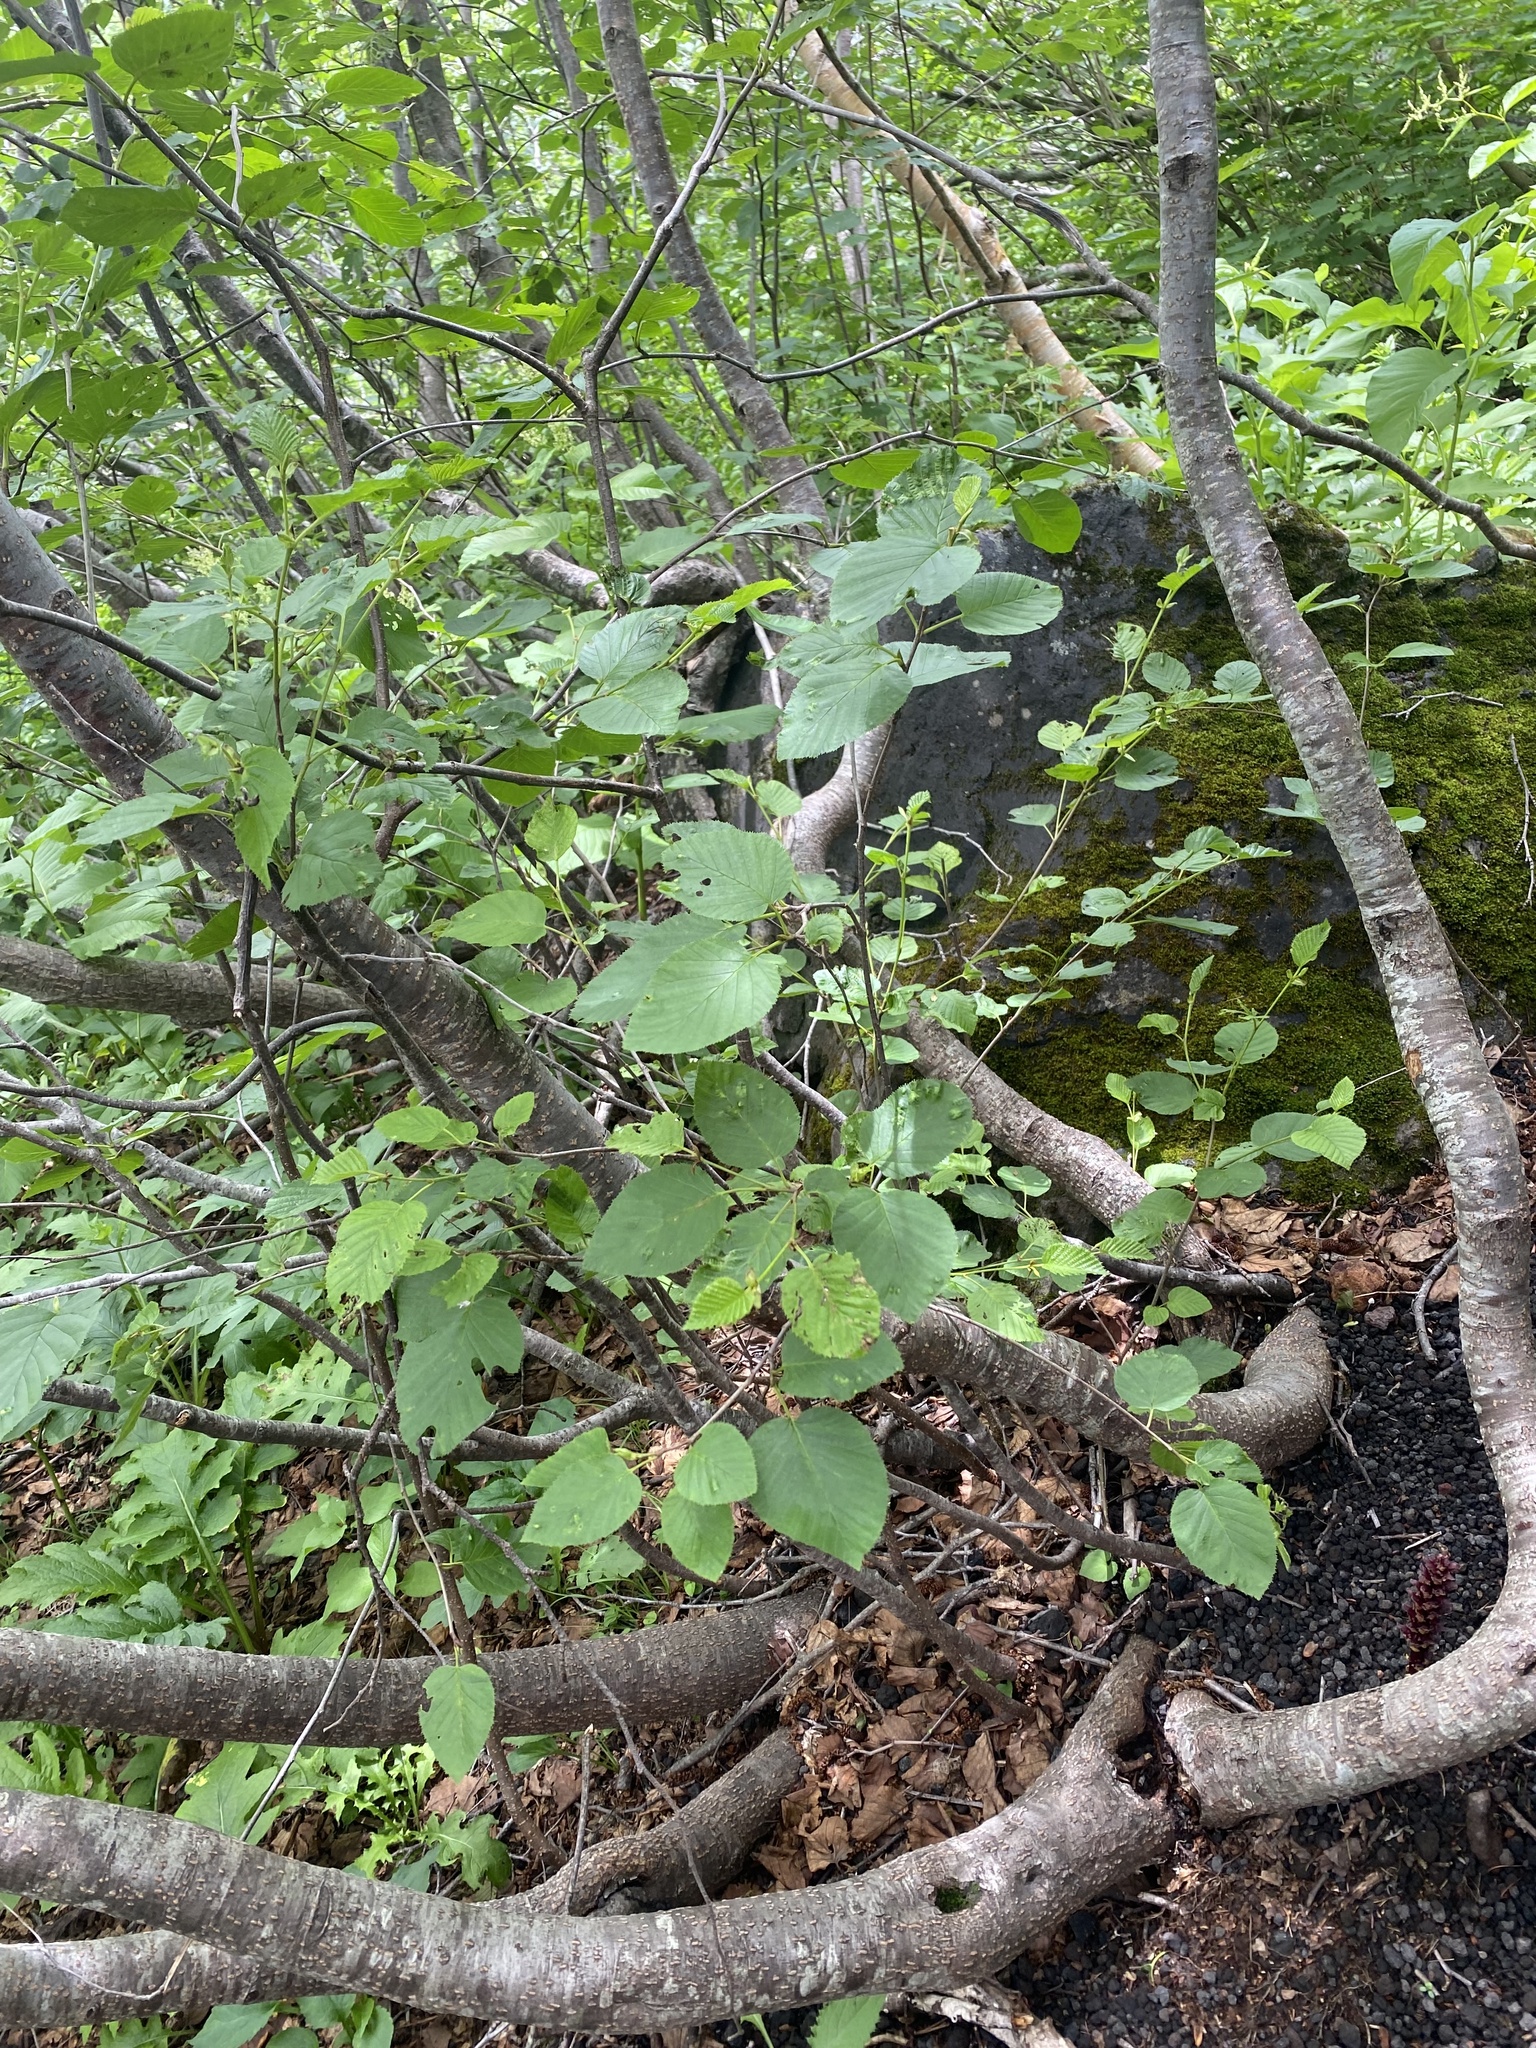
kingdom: Plantae
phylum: Tracheophyta
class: Magnoliopsida
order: Fagales
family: Betulaceae
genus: Alnus
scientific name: Alnus maximowiczii
